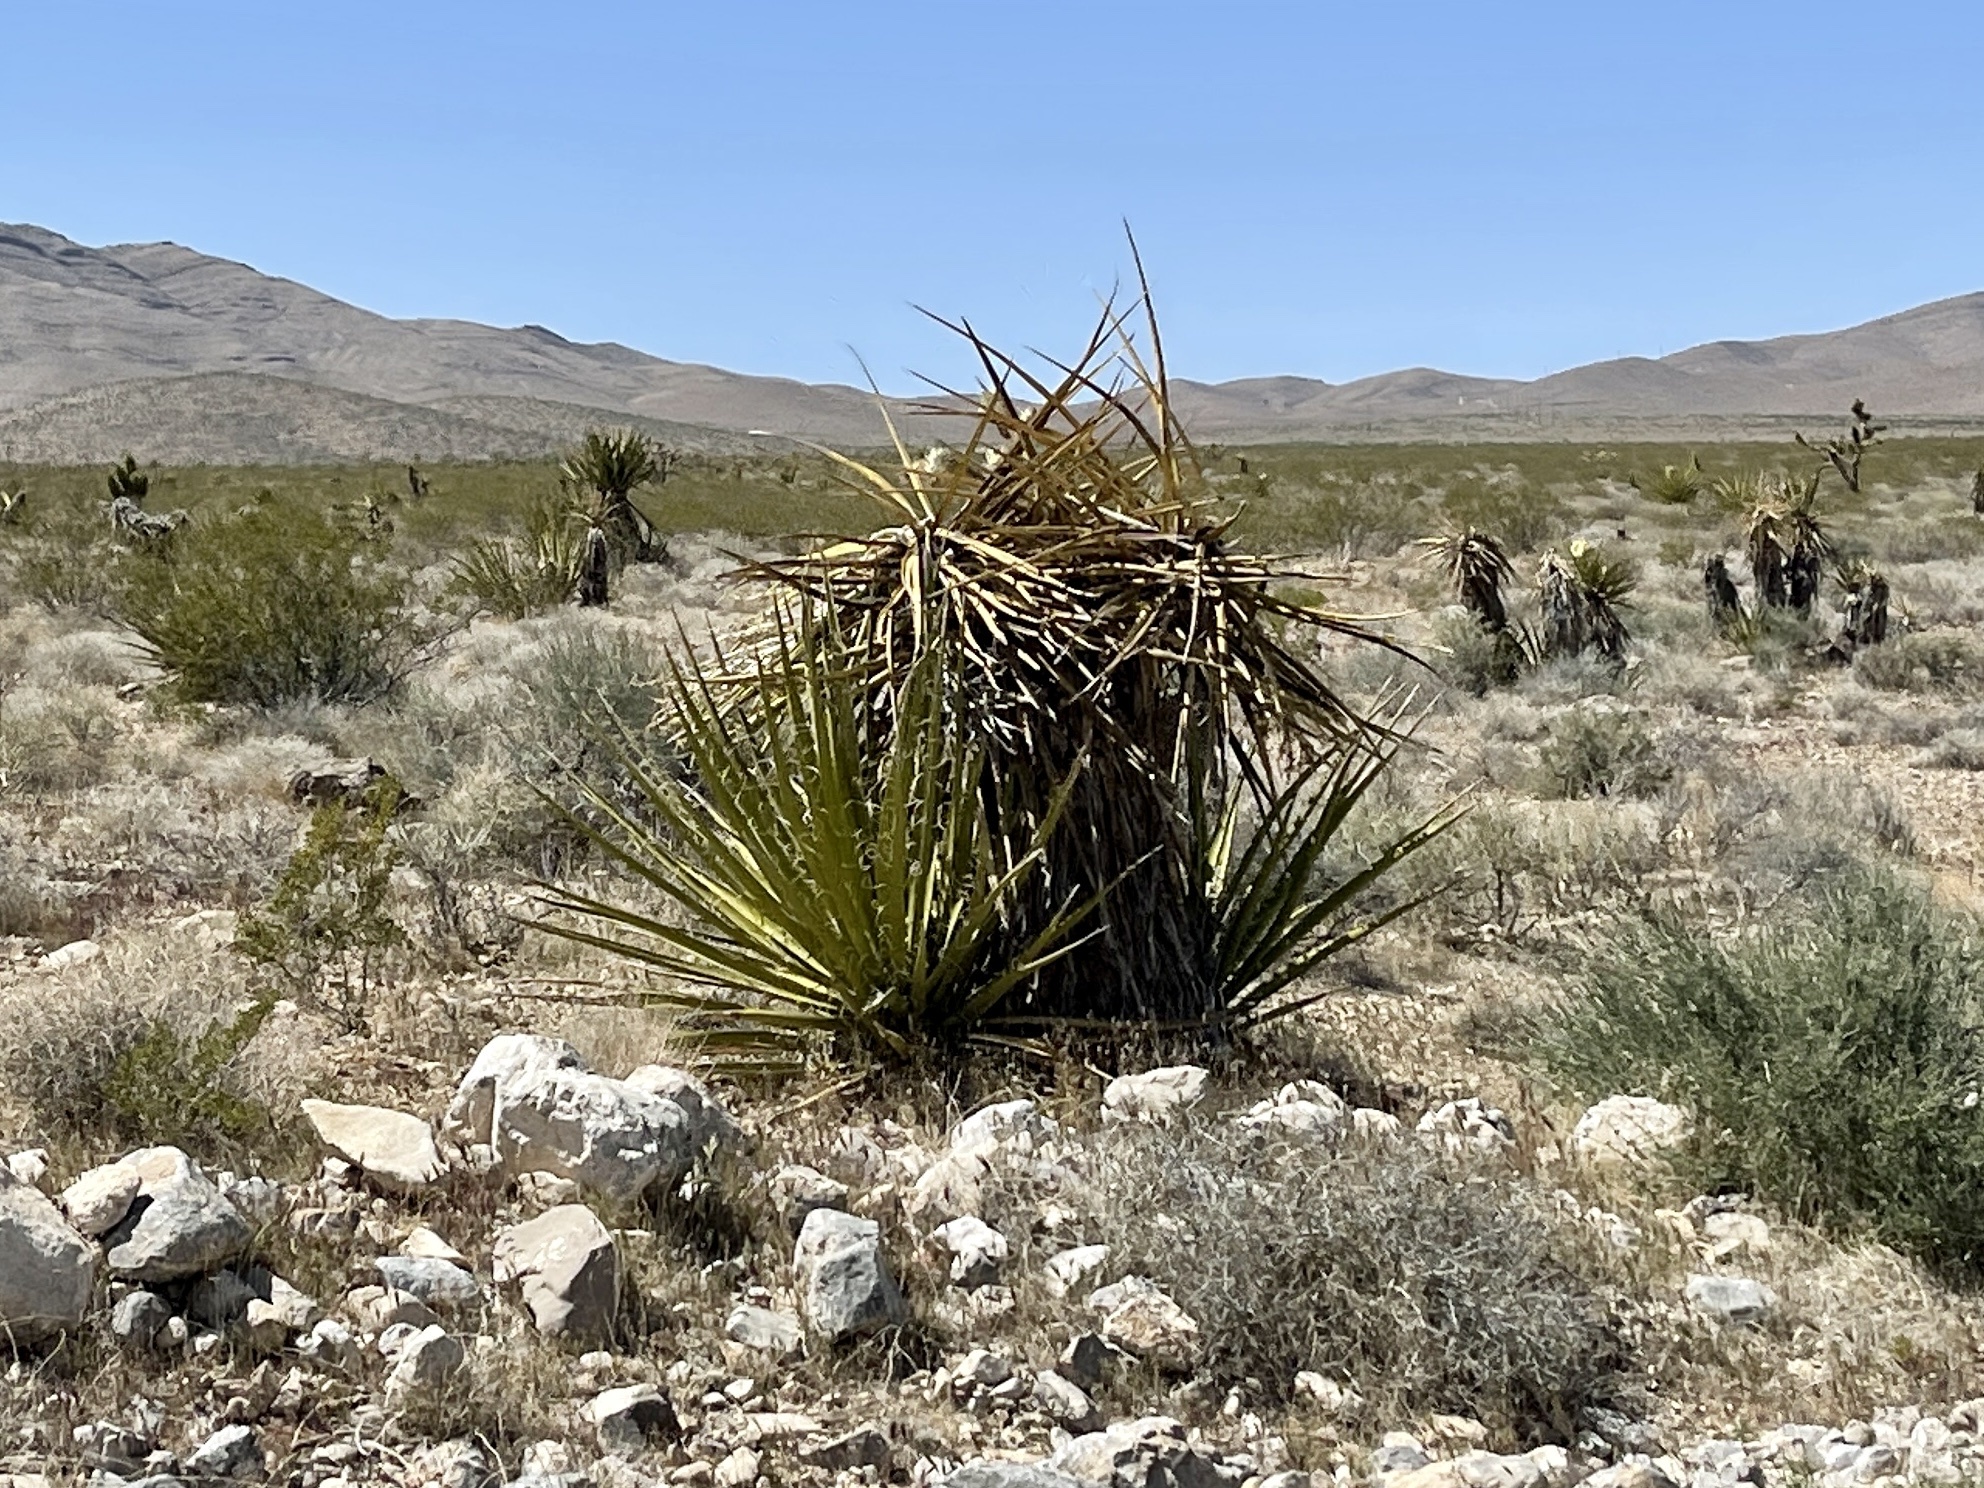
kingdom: Plantae
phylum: Tracheophyta
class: Liliopsida
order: Asparagales
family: Asparagaceae
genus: Yucca
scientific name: Yucca schidigera
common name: Mojave yucca
